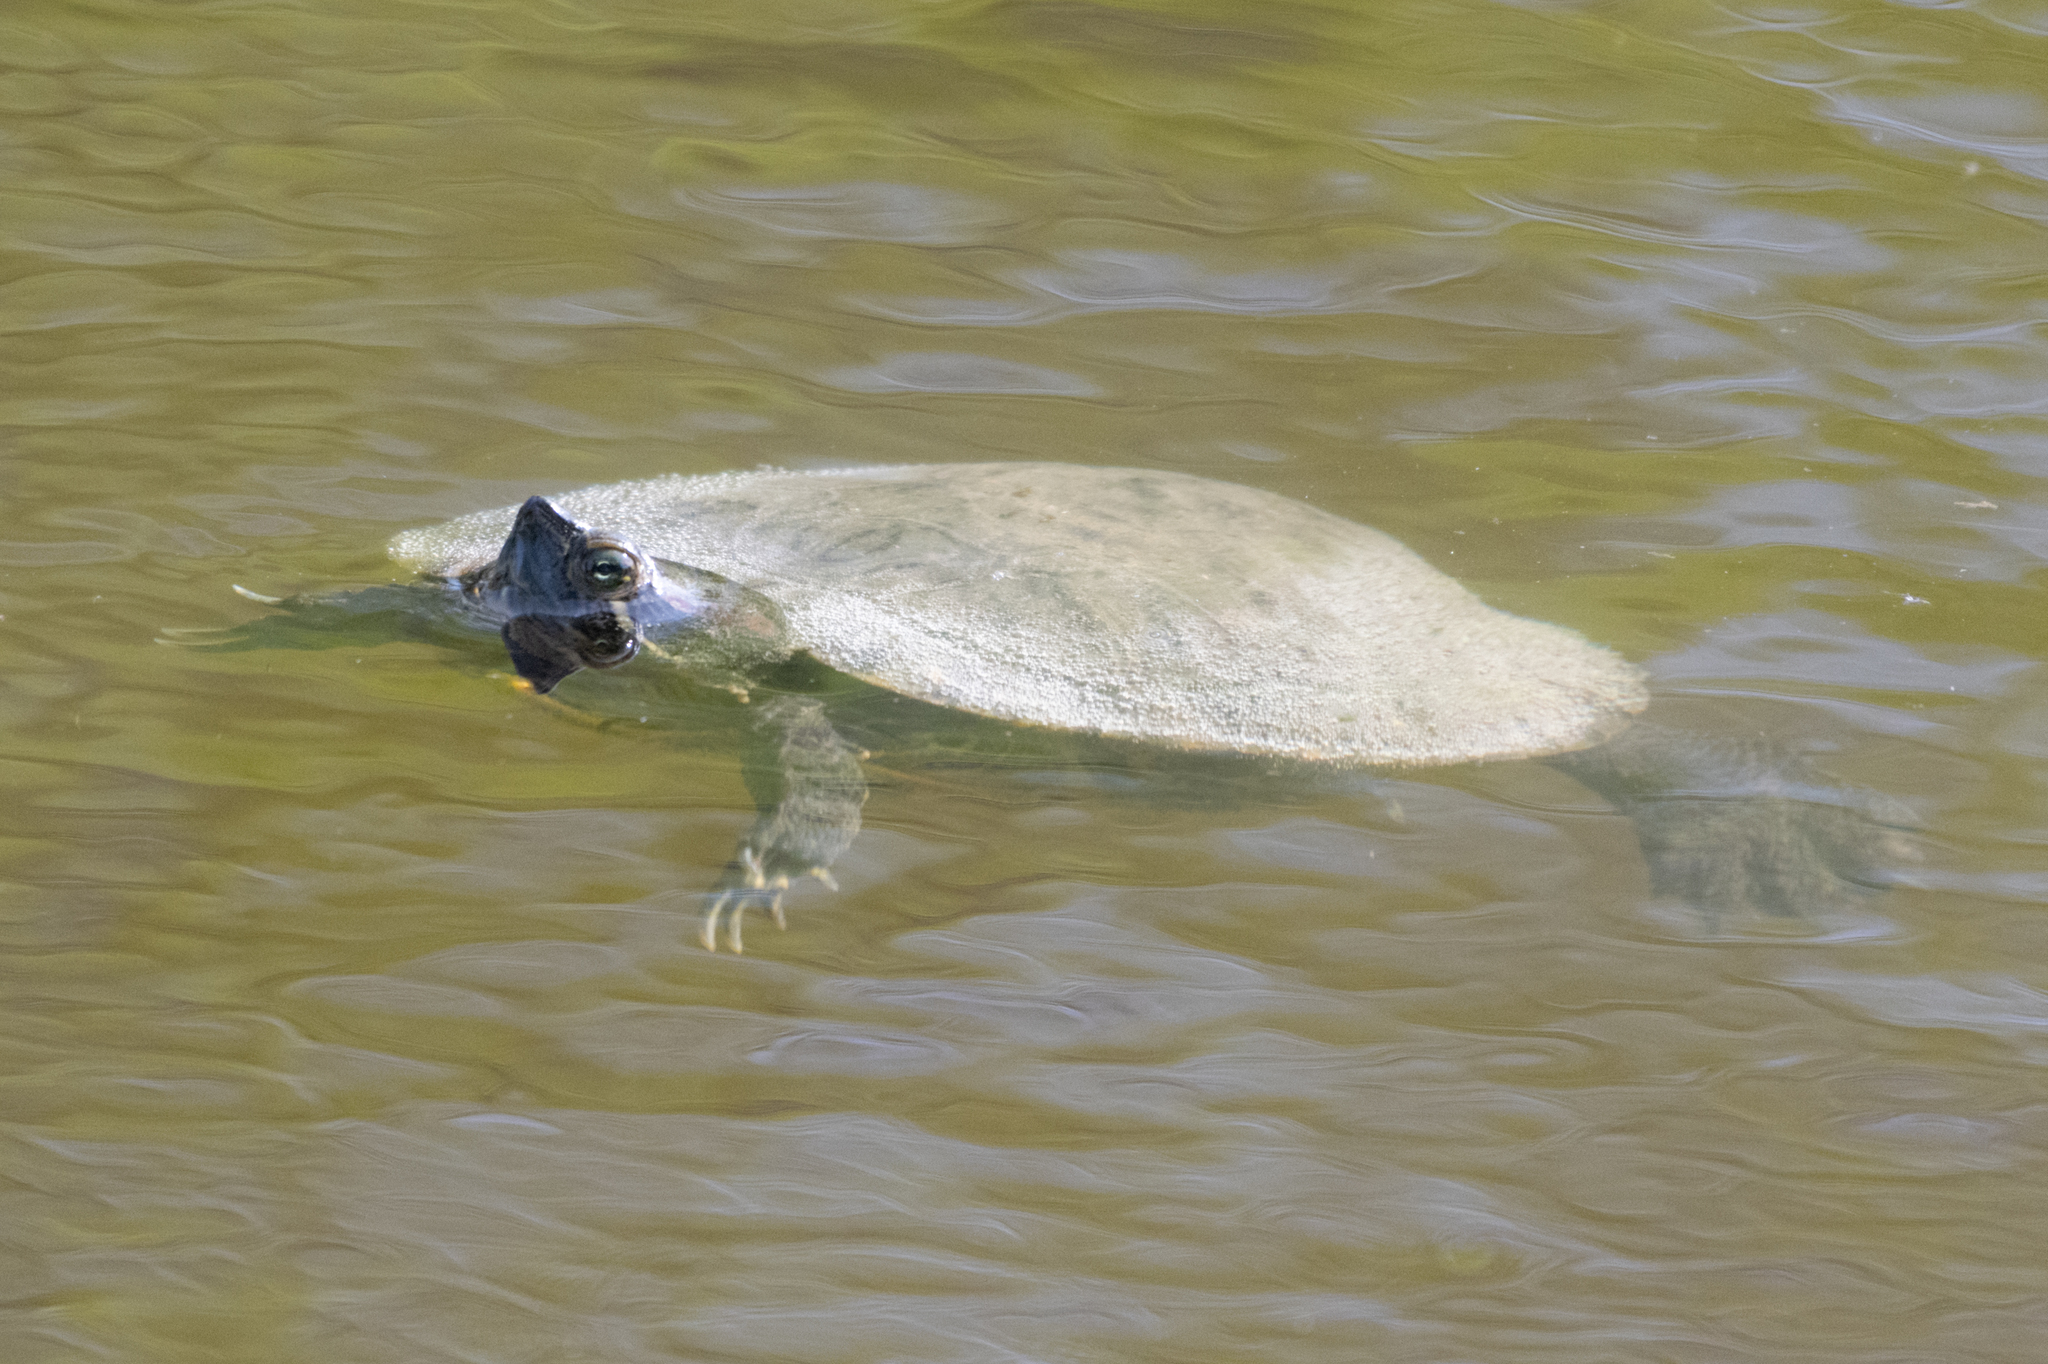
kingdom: Animalia
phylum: Chordata
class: Testudines
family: Emydidae
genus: Trachemys
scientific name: Trachemys scripta
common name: Slider
